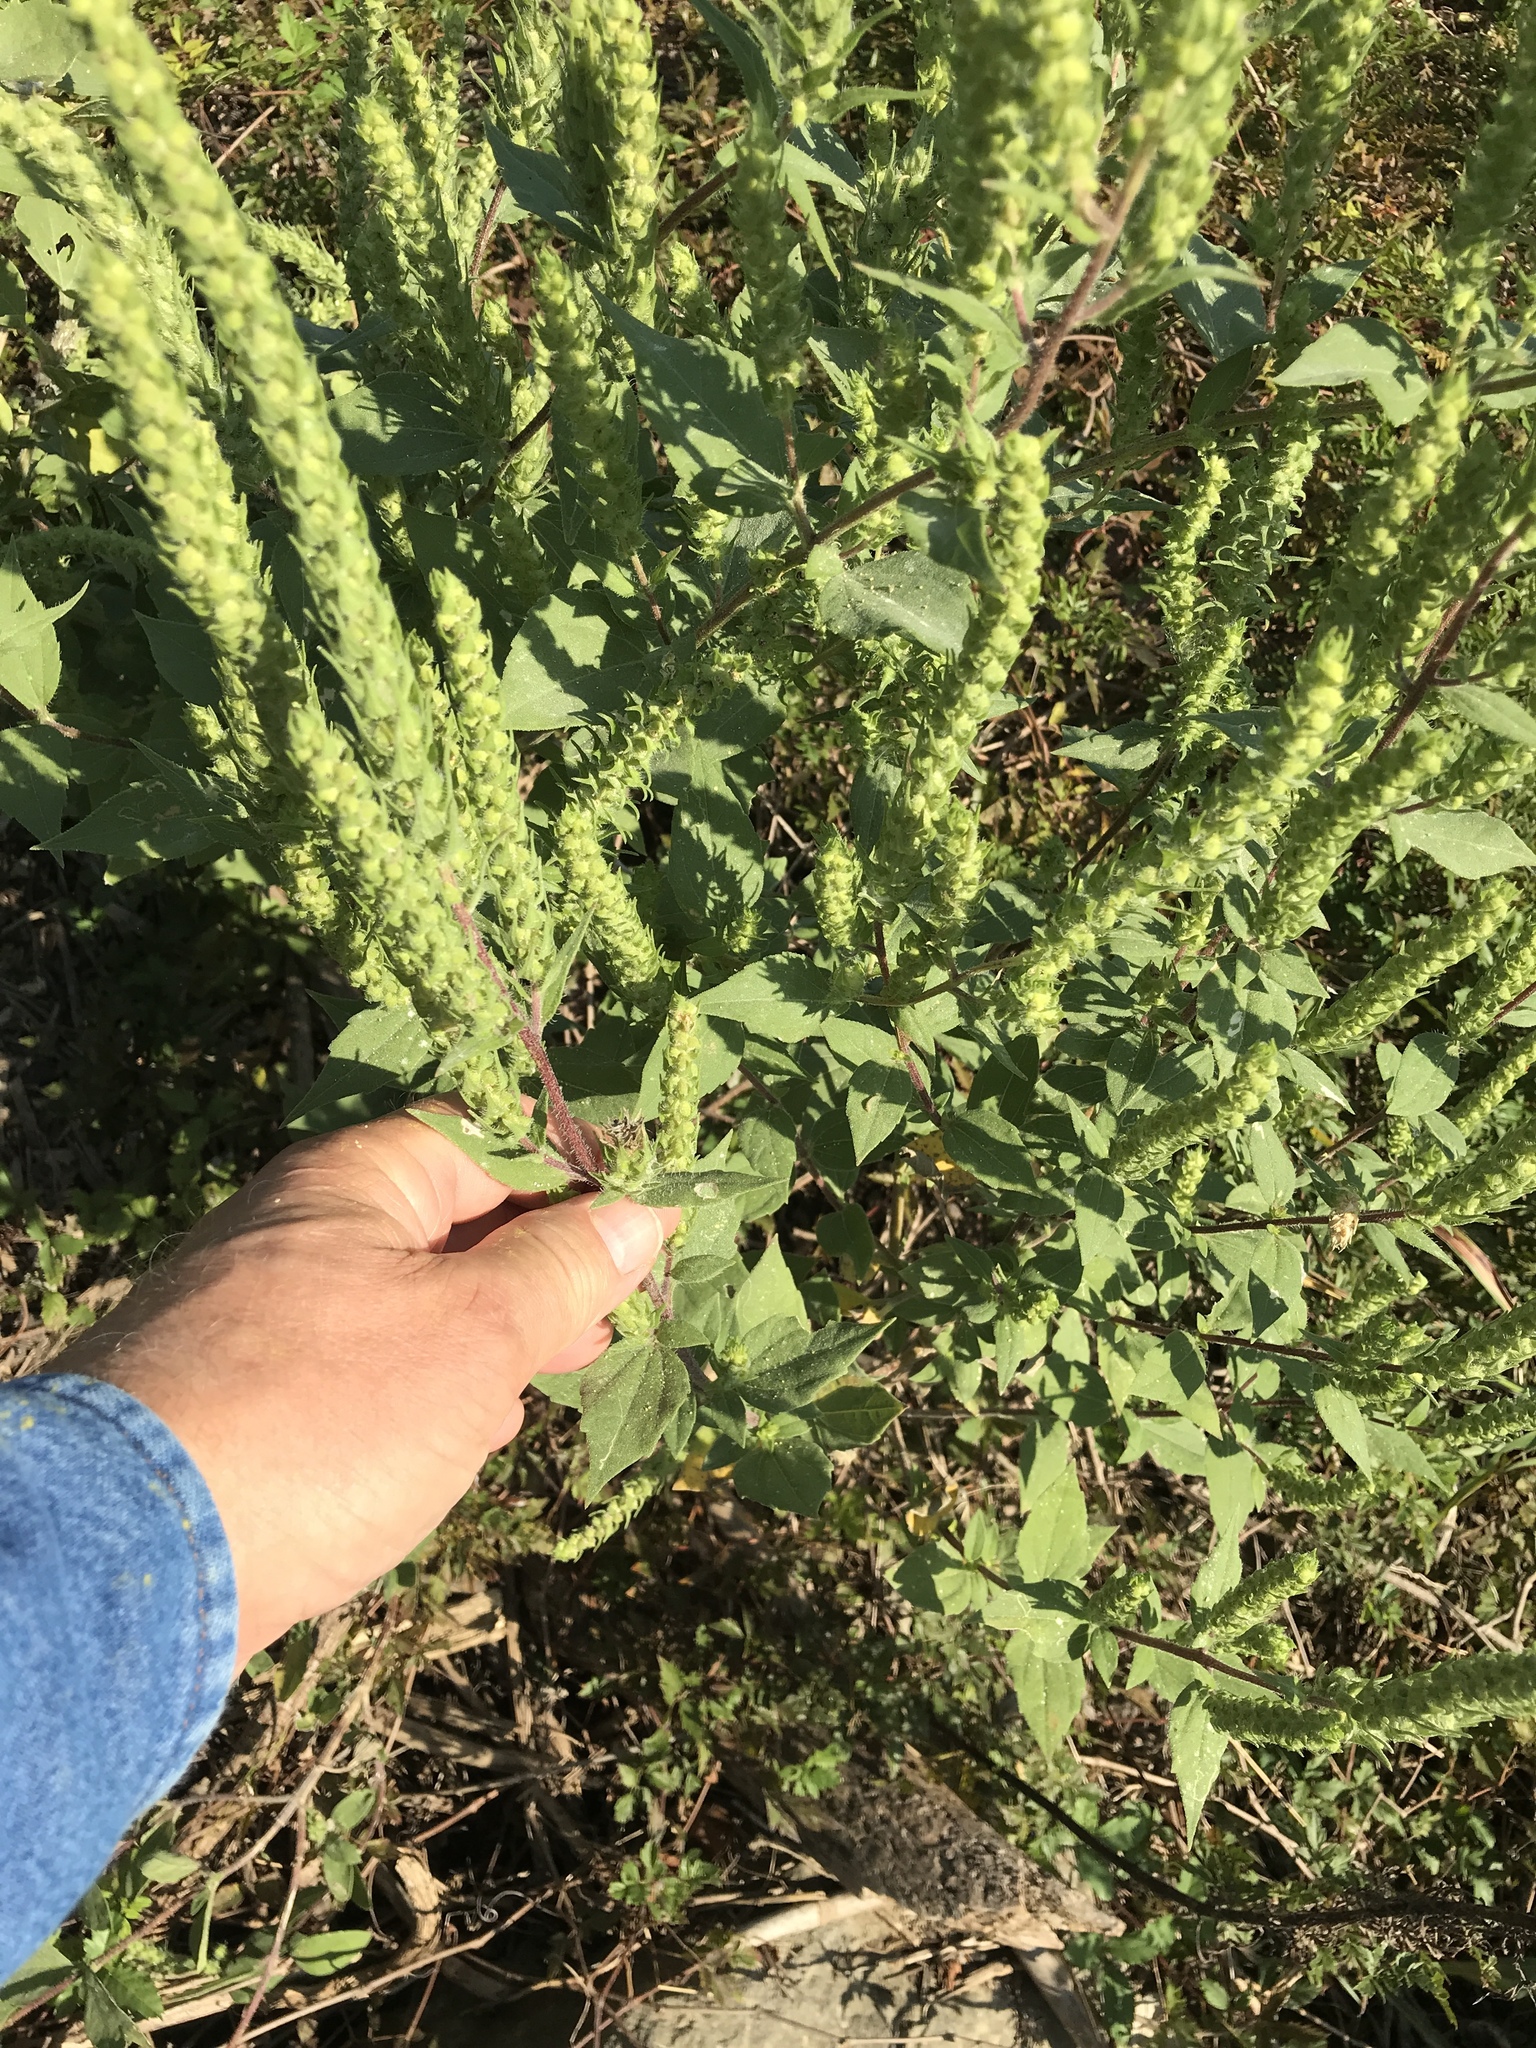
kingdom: Plantae
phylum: Tracheophyta
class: Magnoliopsida
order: Asterales
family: Asteraceae
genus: Iva
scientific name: Iva annua
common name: Marsh-elder
